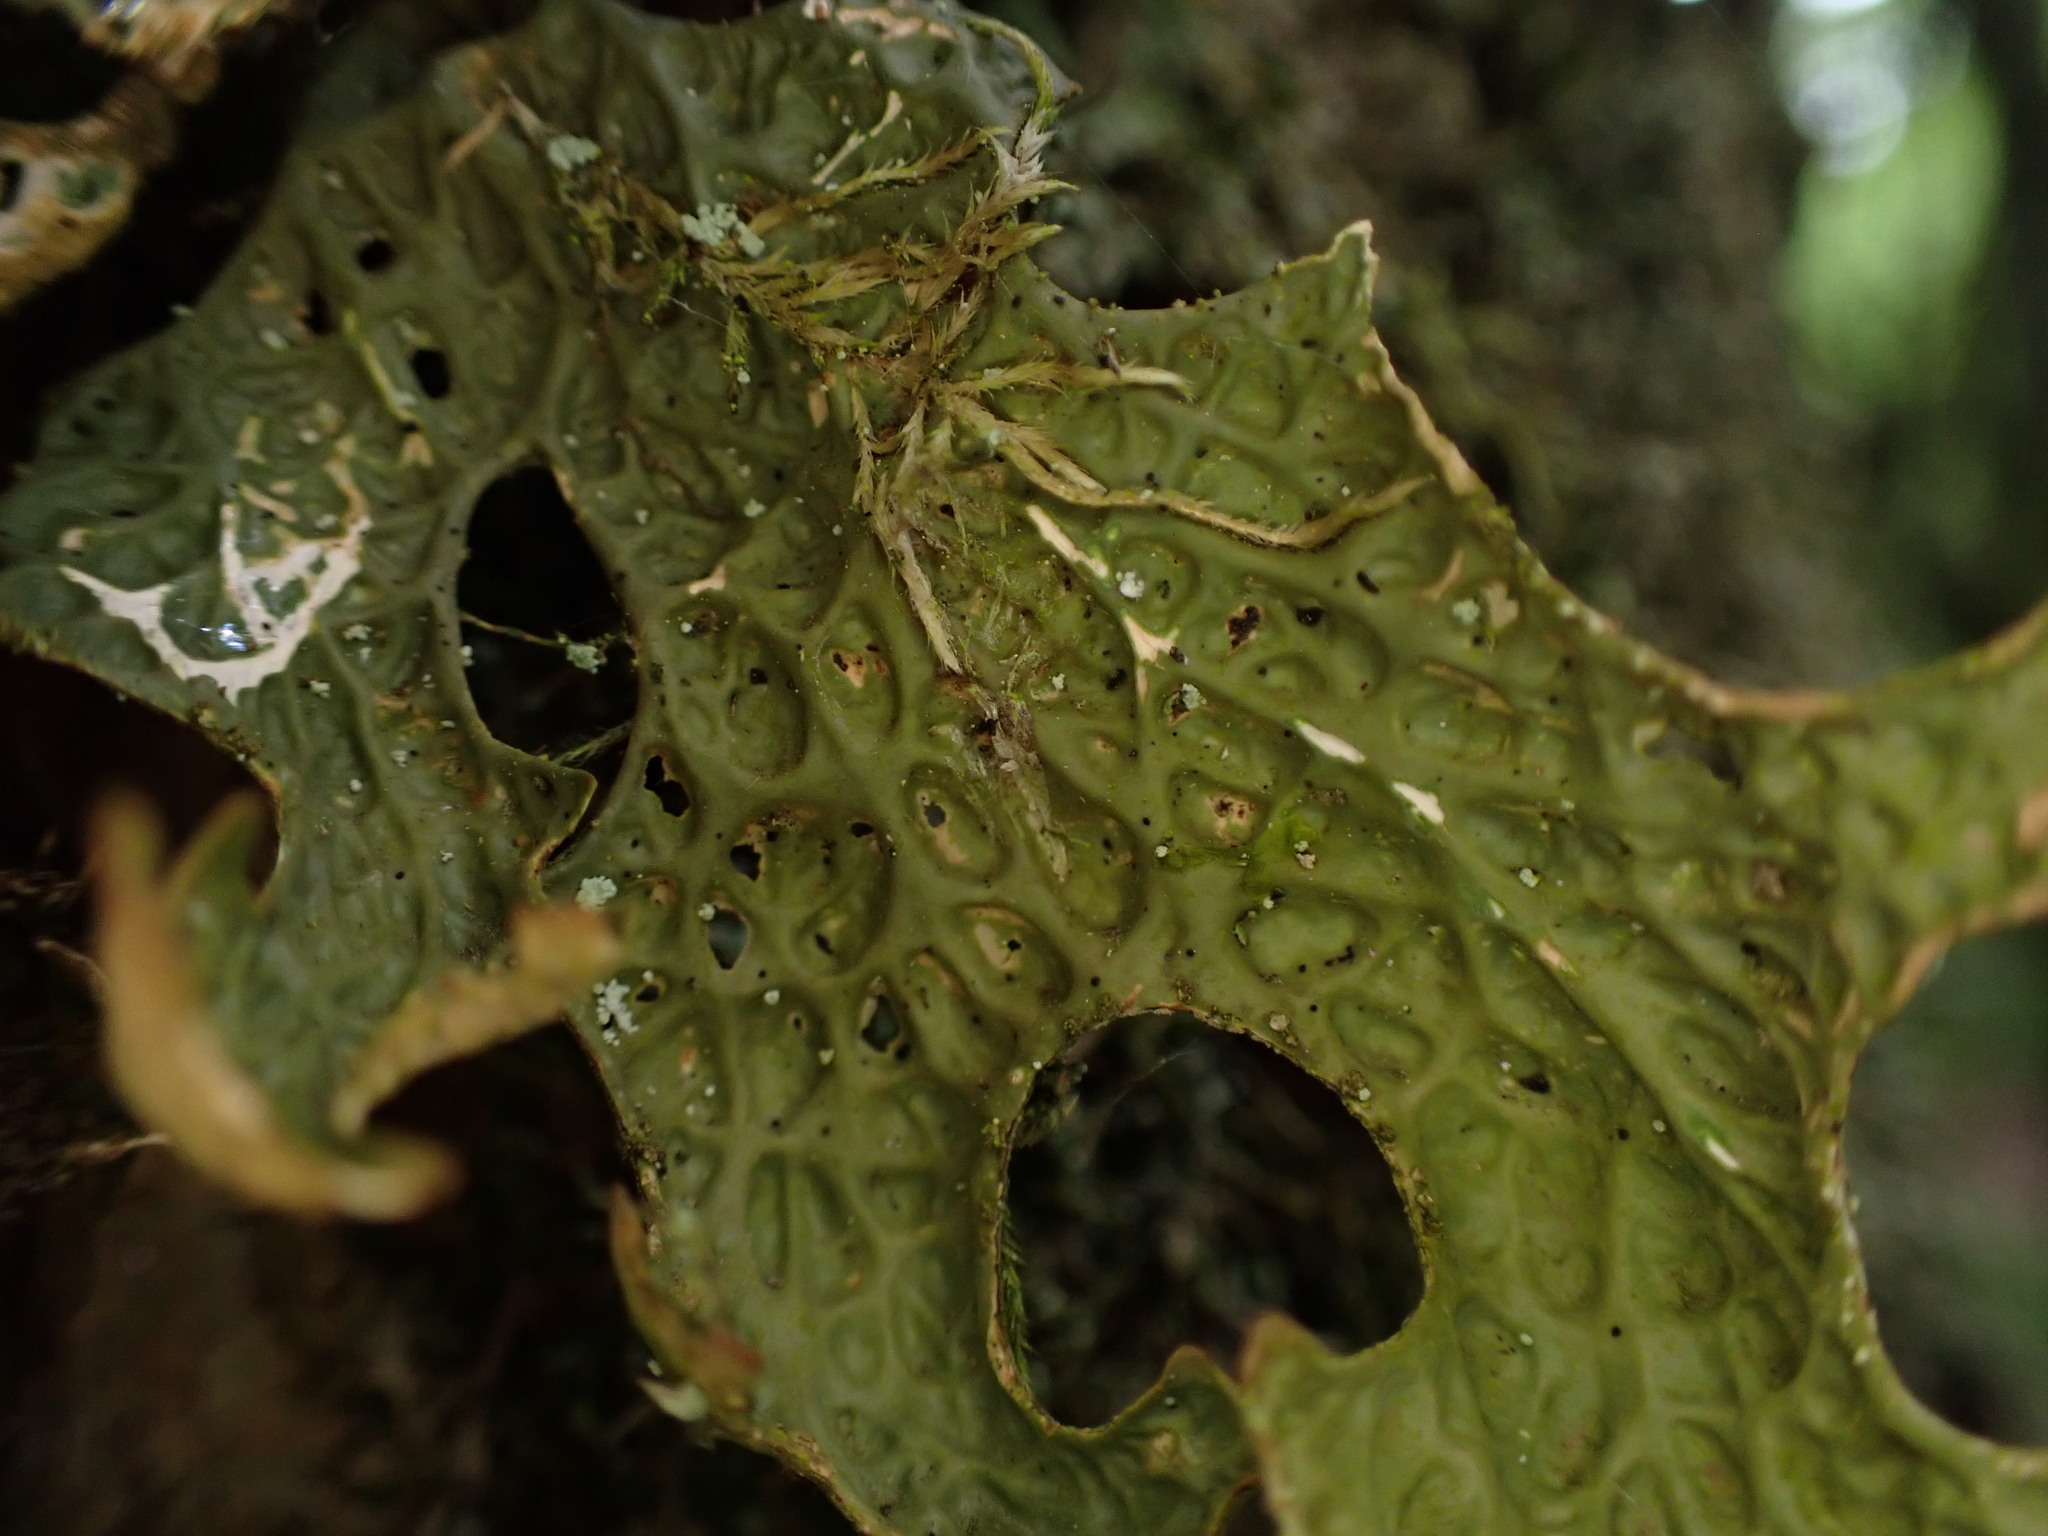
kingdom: Fungi
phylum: Ascomycota
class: Lecanoromycetes
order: Peltigerales
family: Lobariaceae
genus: Lobaria
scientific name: Lobaria pulmonaria
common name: Lungwort
